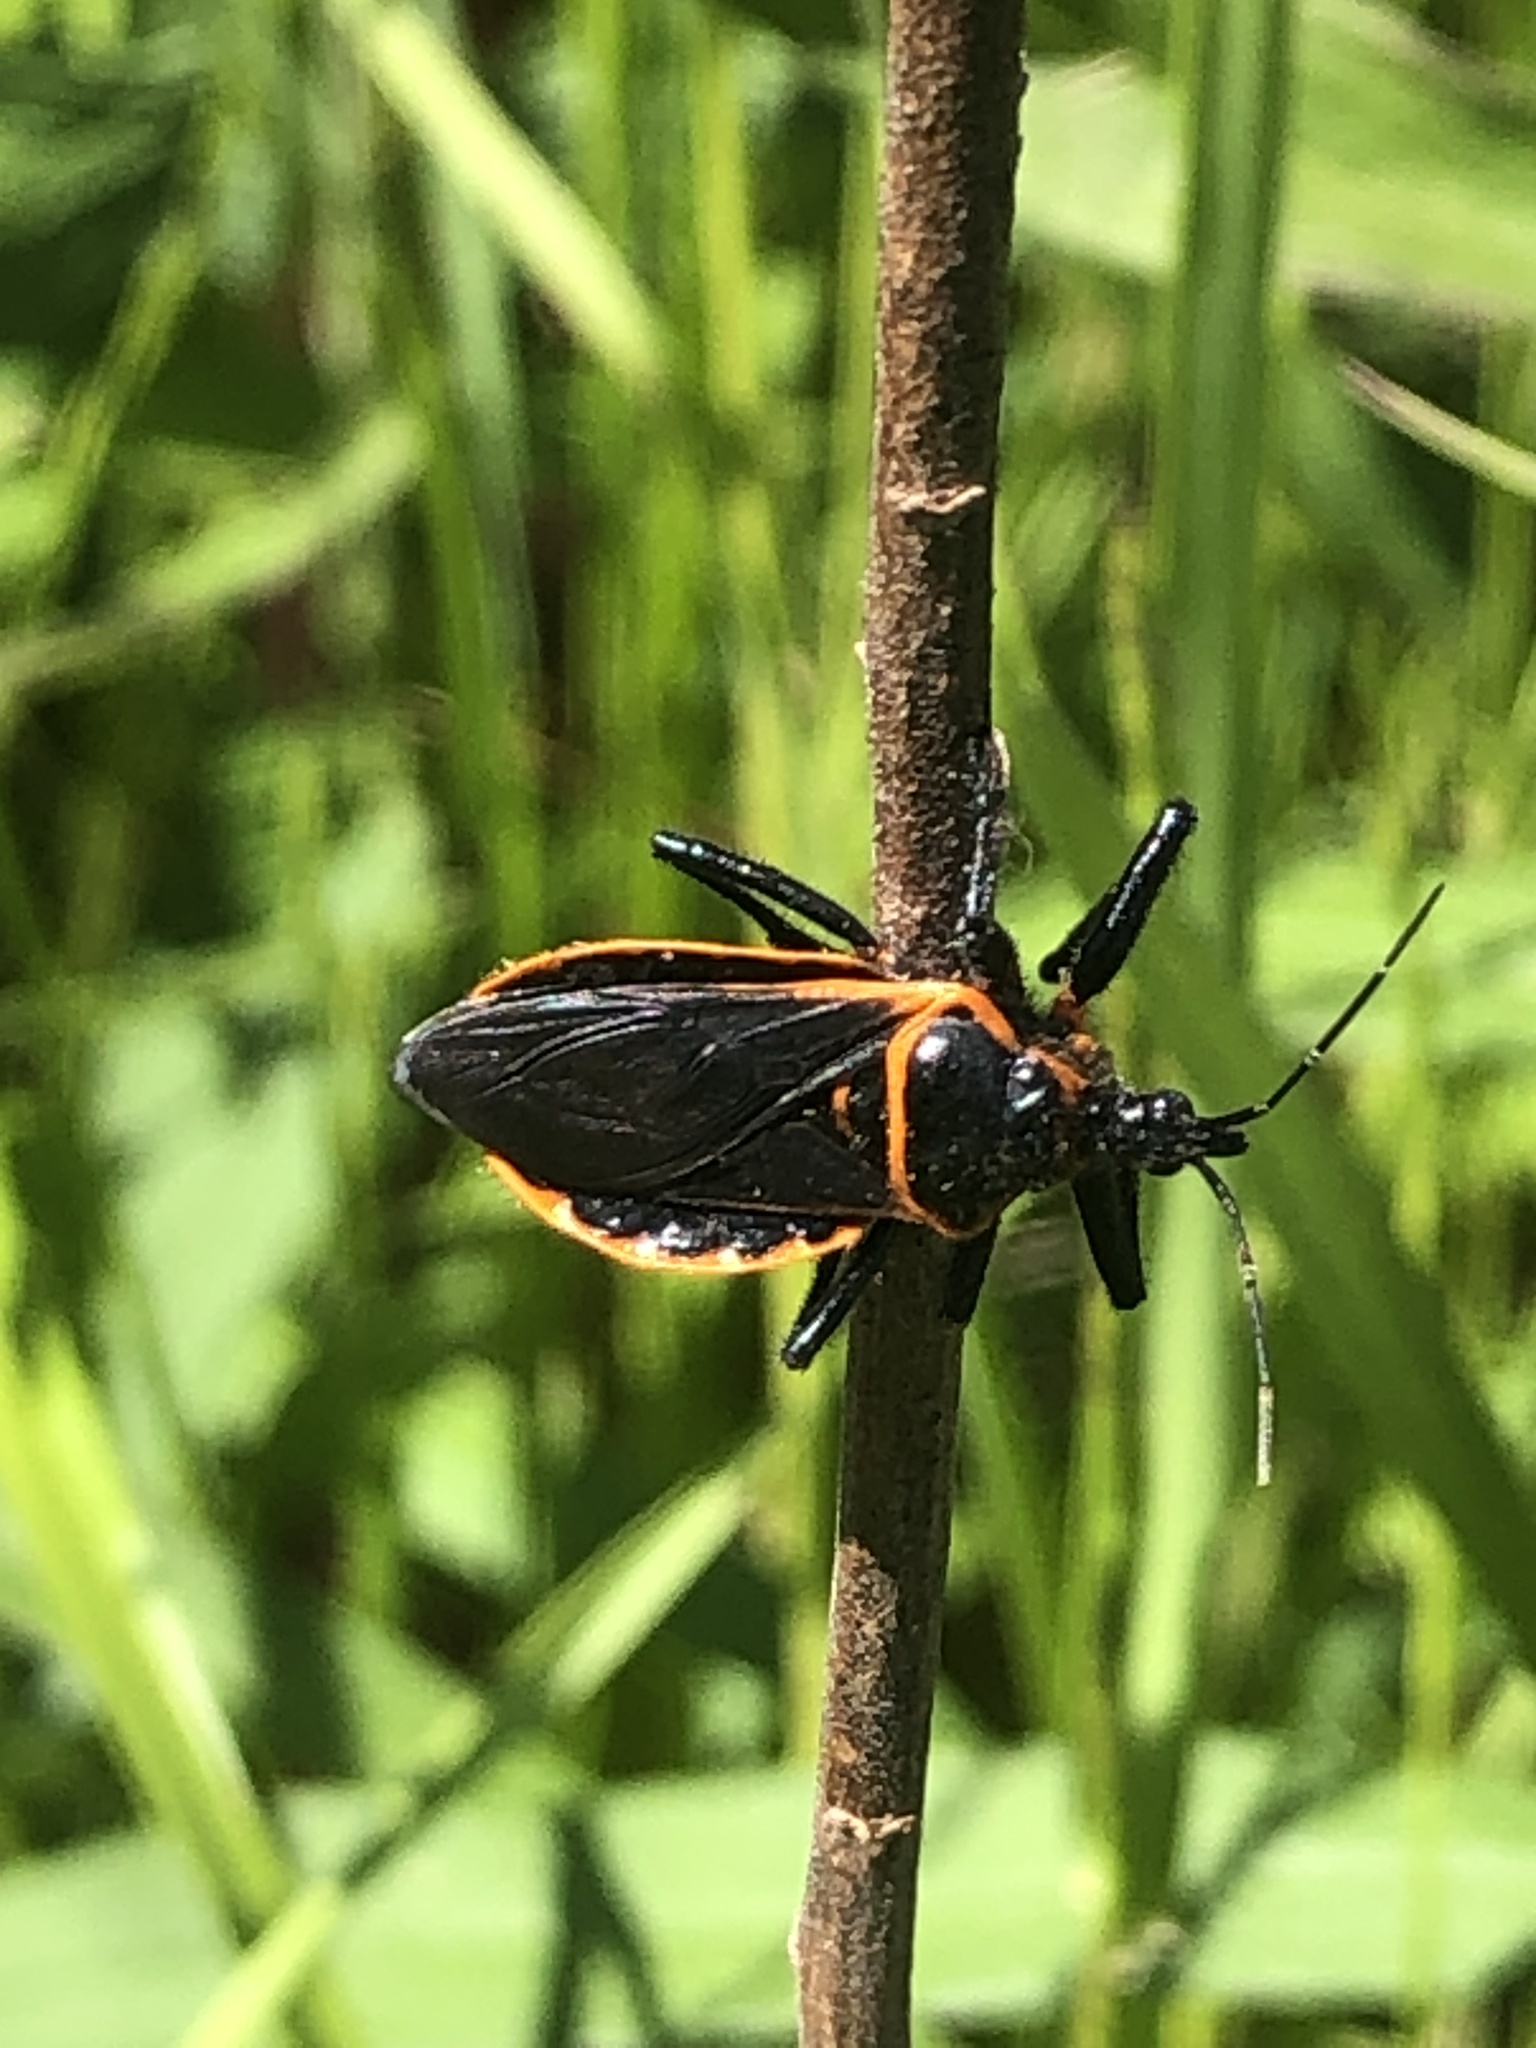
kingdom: Animalia
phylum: Arthropoda
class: Insecta
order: Hemiptera
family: Reduviidae
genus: Apiomerus
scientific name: Apiomerus crassipes
